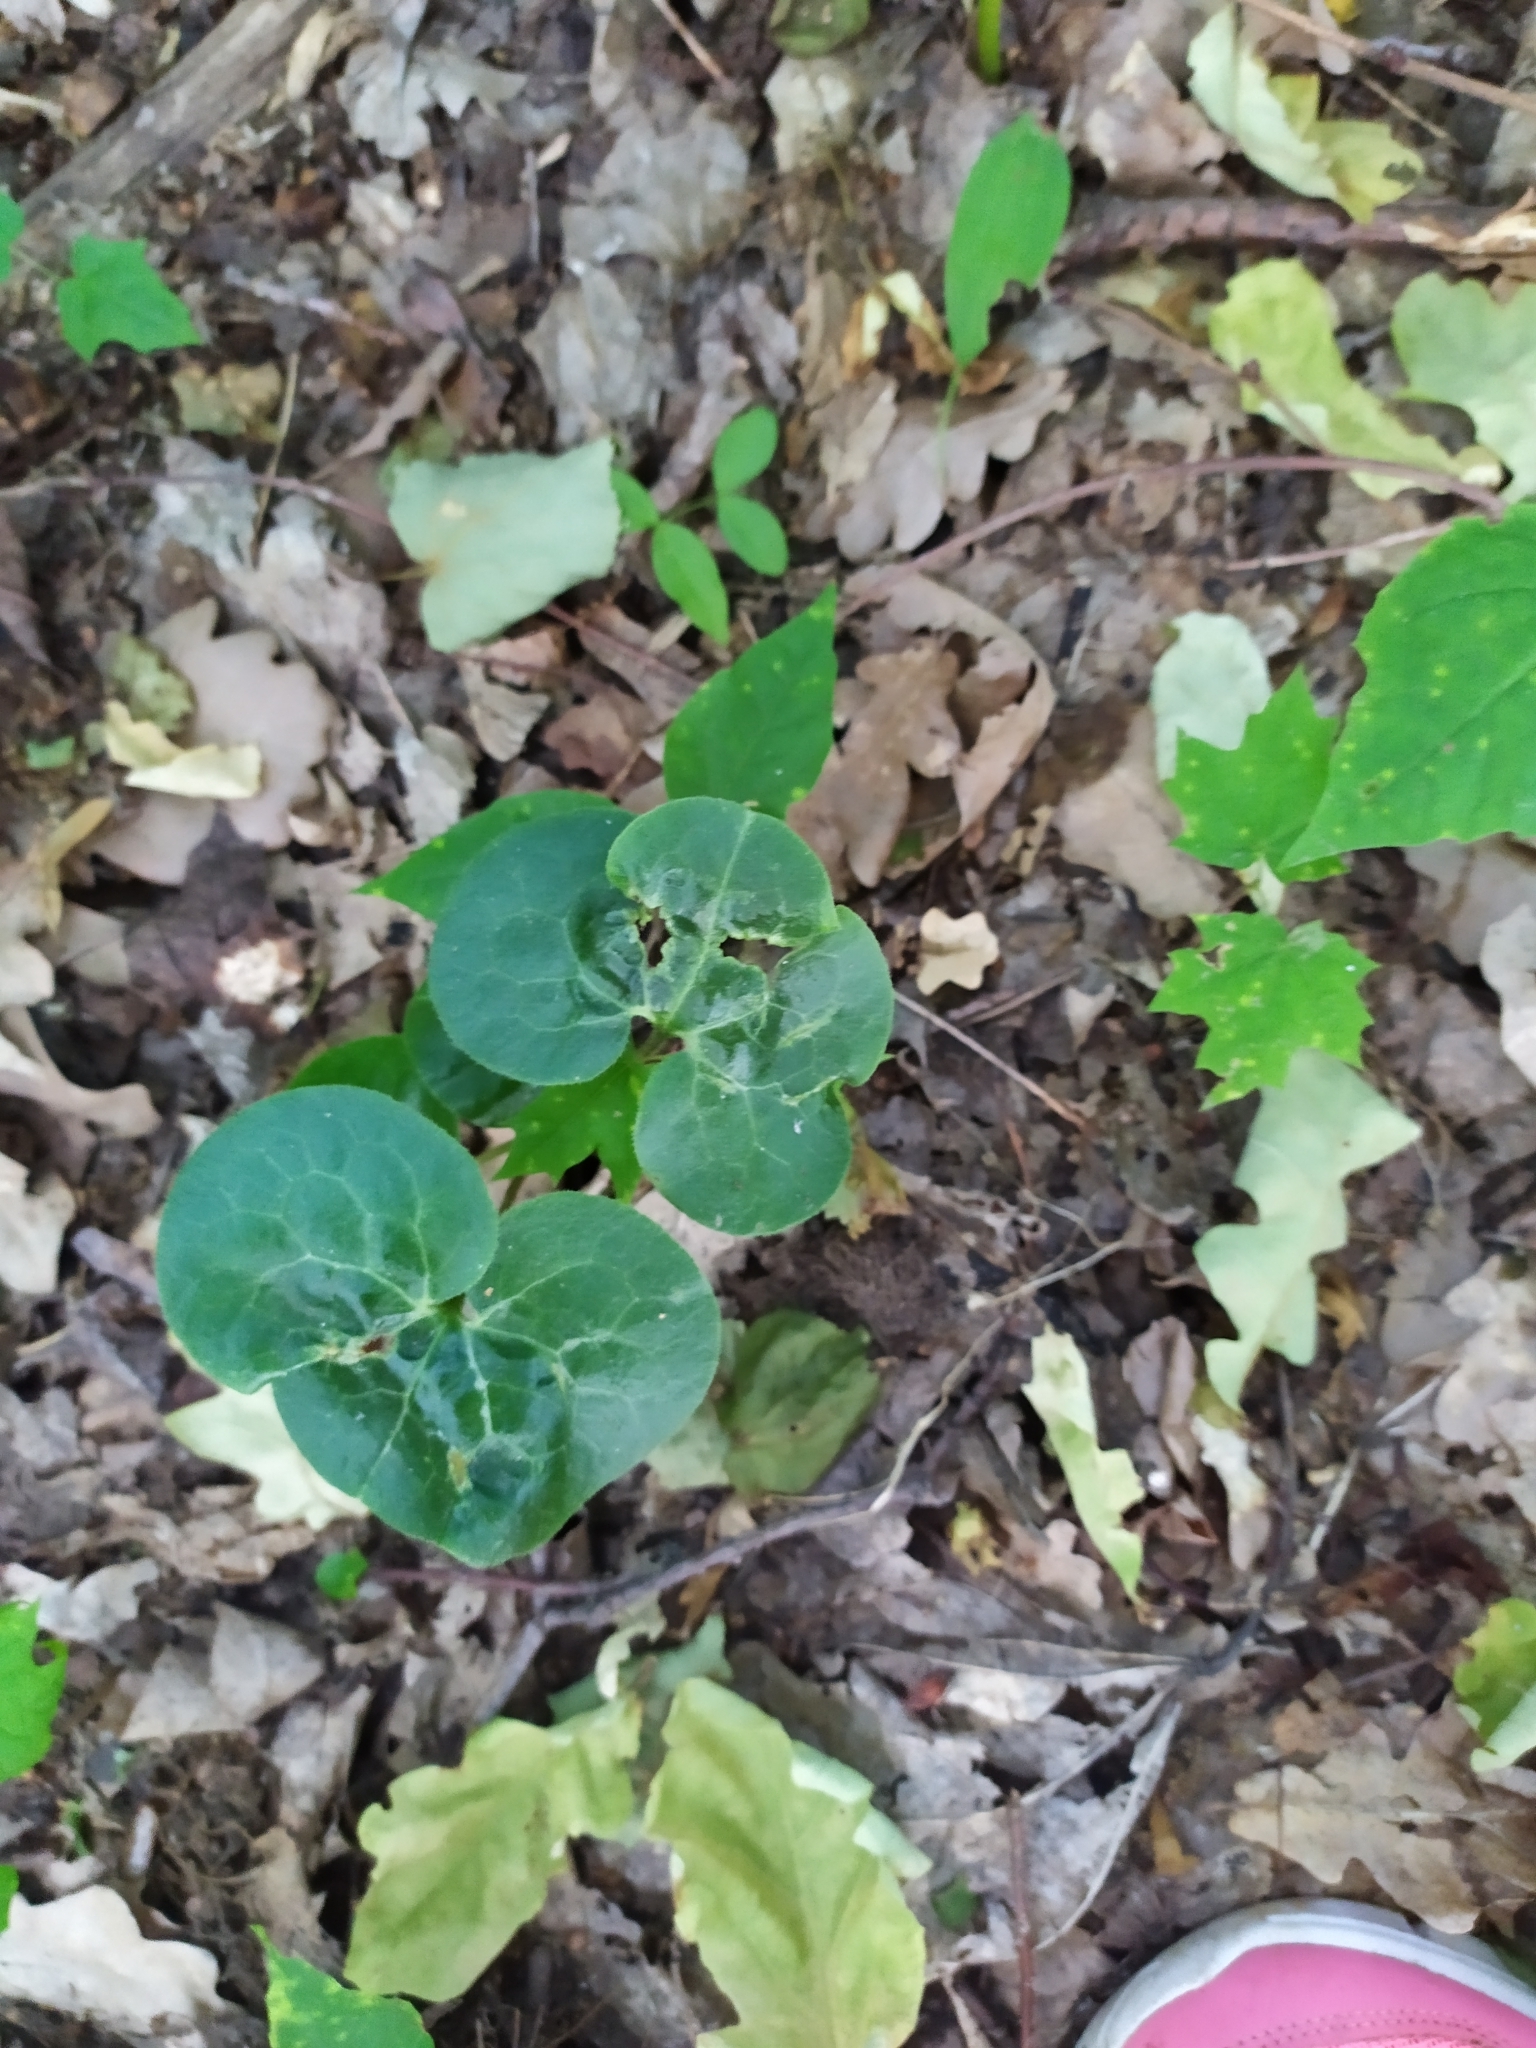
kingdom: Plantae
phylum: Tracheophyta
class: Magnoliopsida
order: Piperales
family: Aristolochiaceae
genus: Asarum
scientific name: Asarum europaeum
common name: Asarabacca
